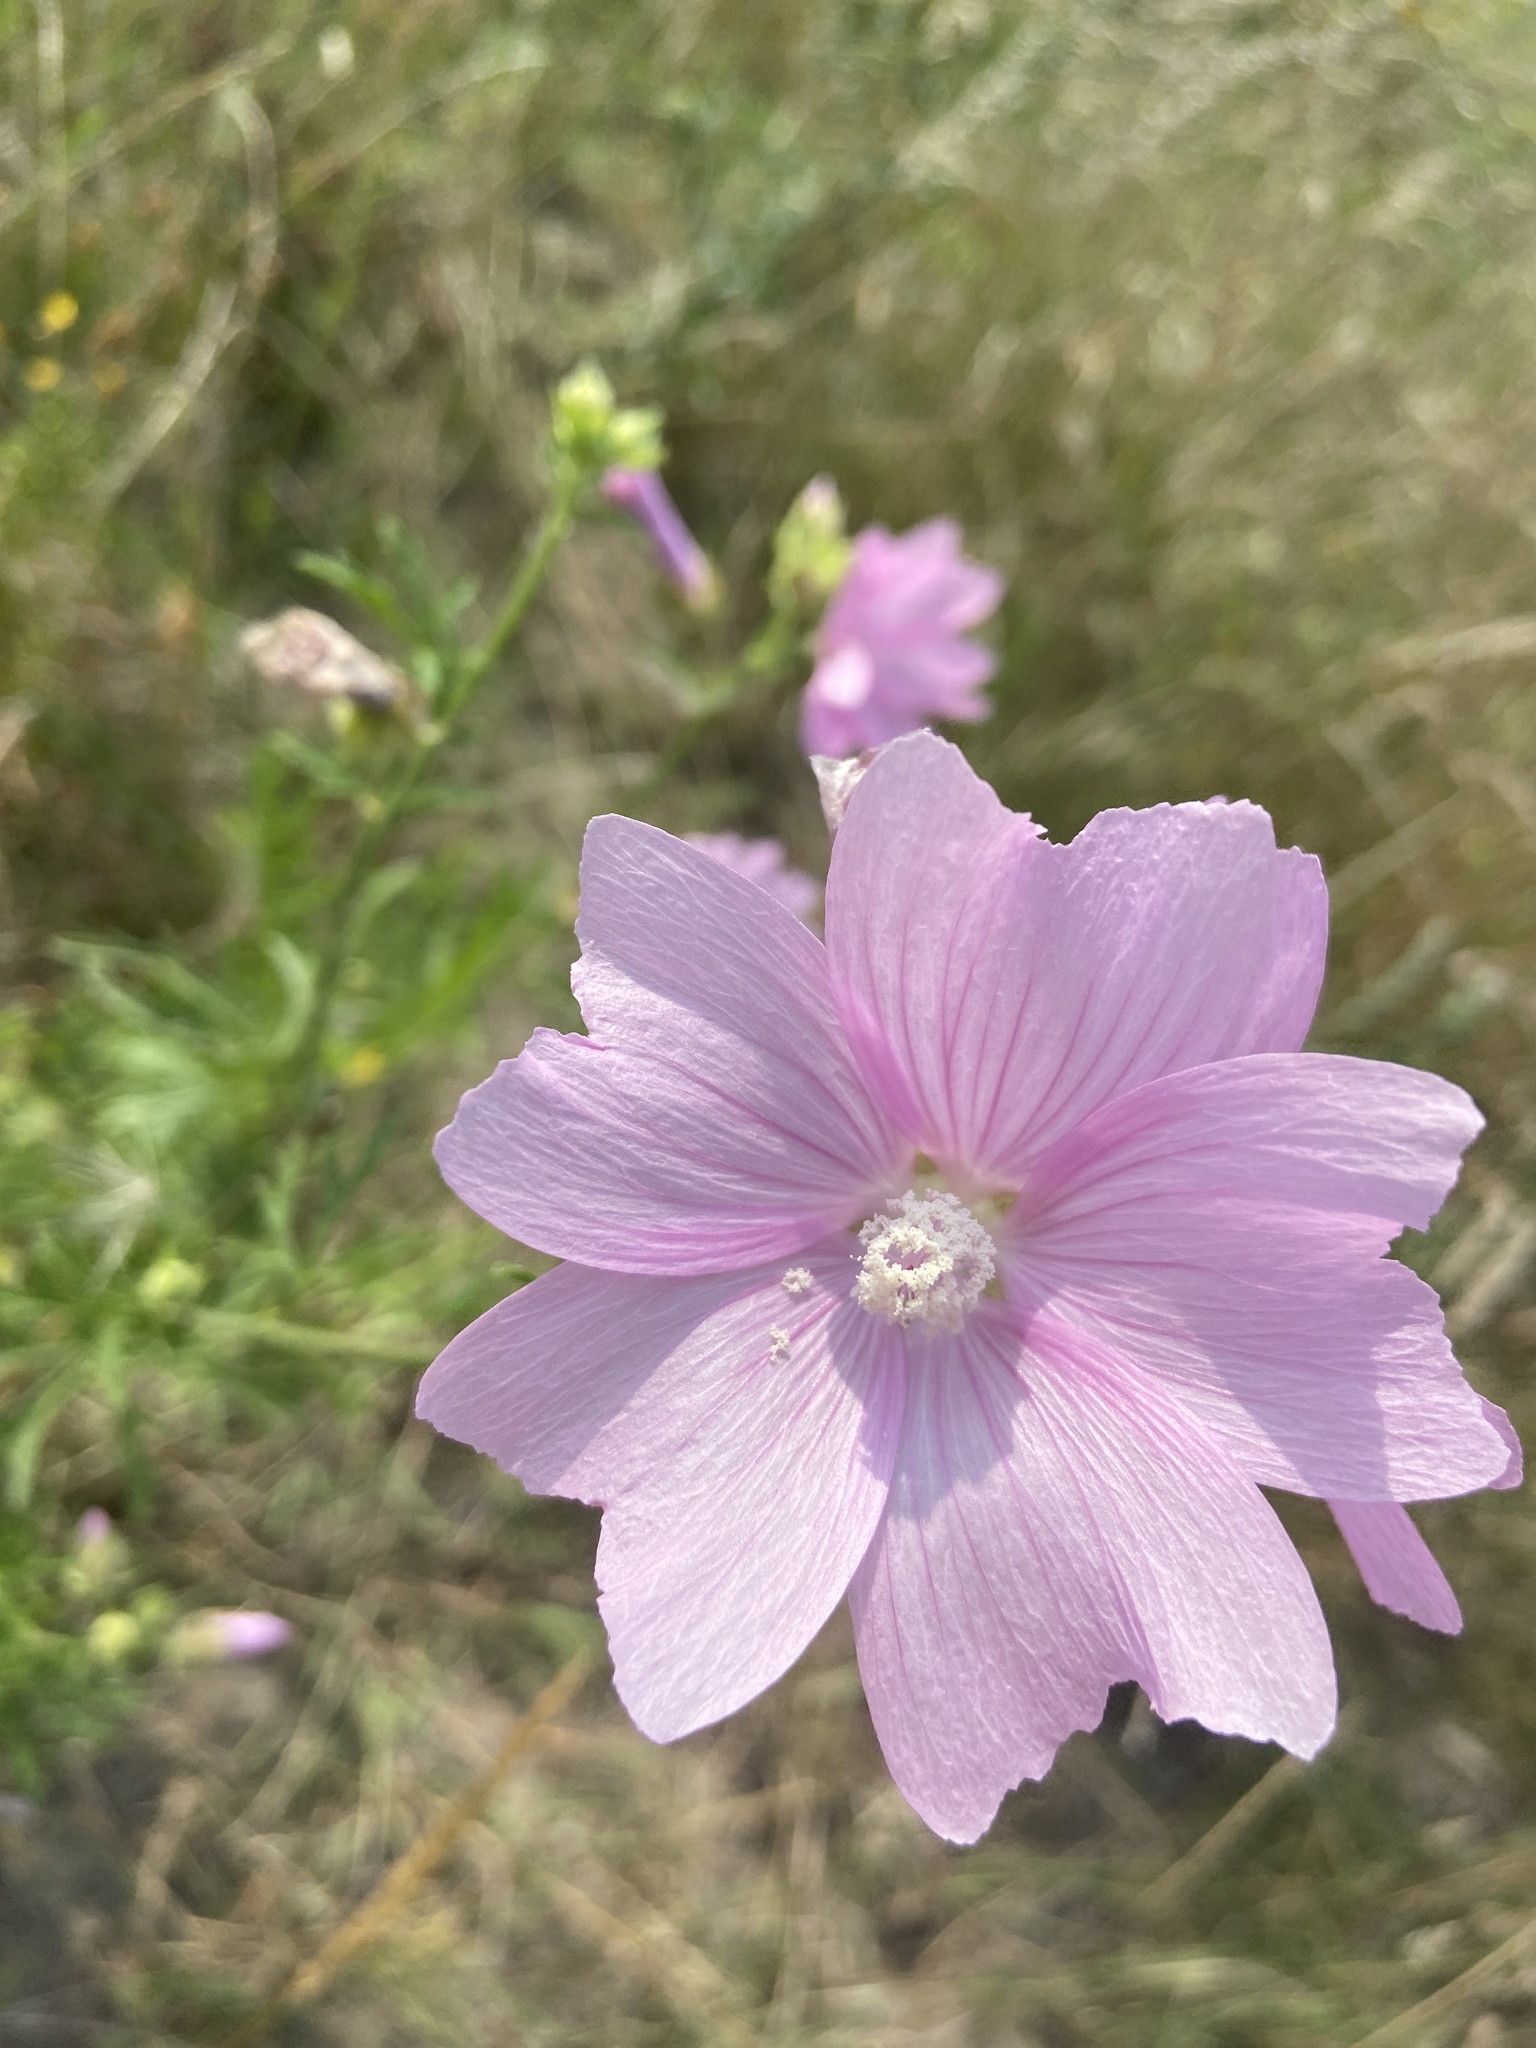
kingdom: Plantae
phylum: Tracheophyta
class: Magnoliopsida
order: Malvales
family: Malvaceae
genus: Malva
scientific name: Malva moschata
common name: Musk mallow
